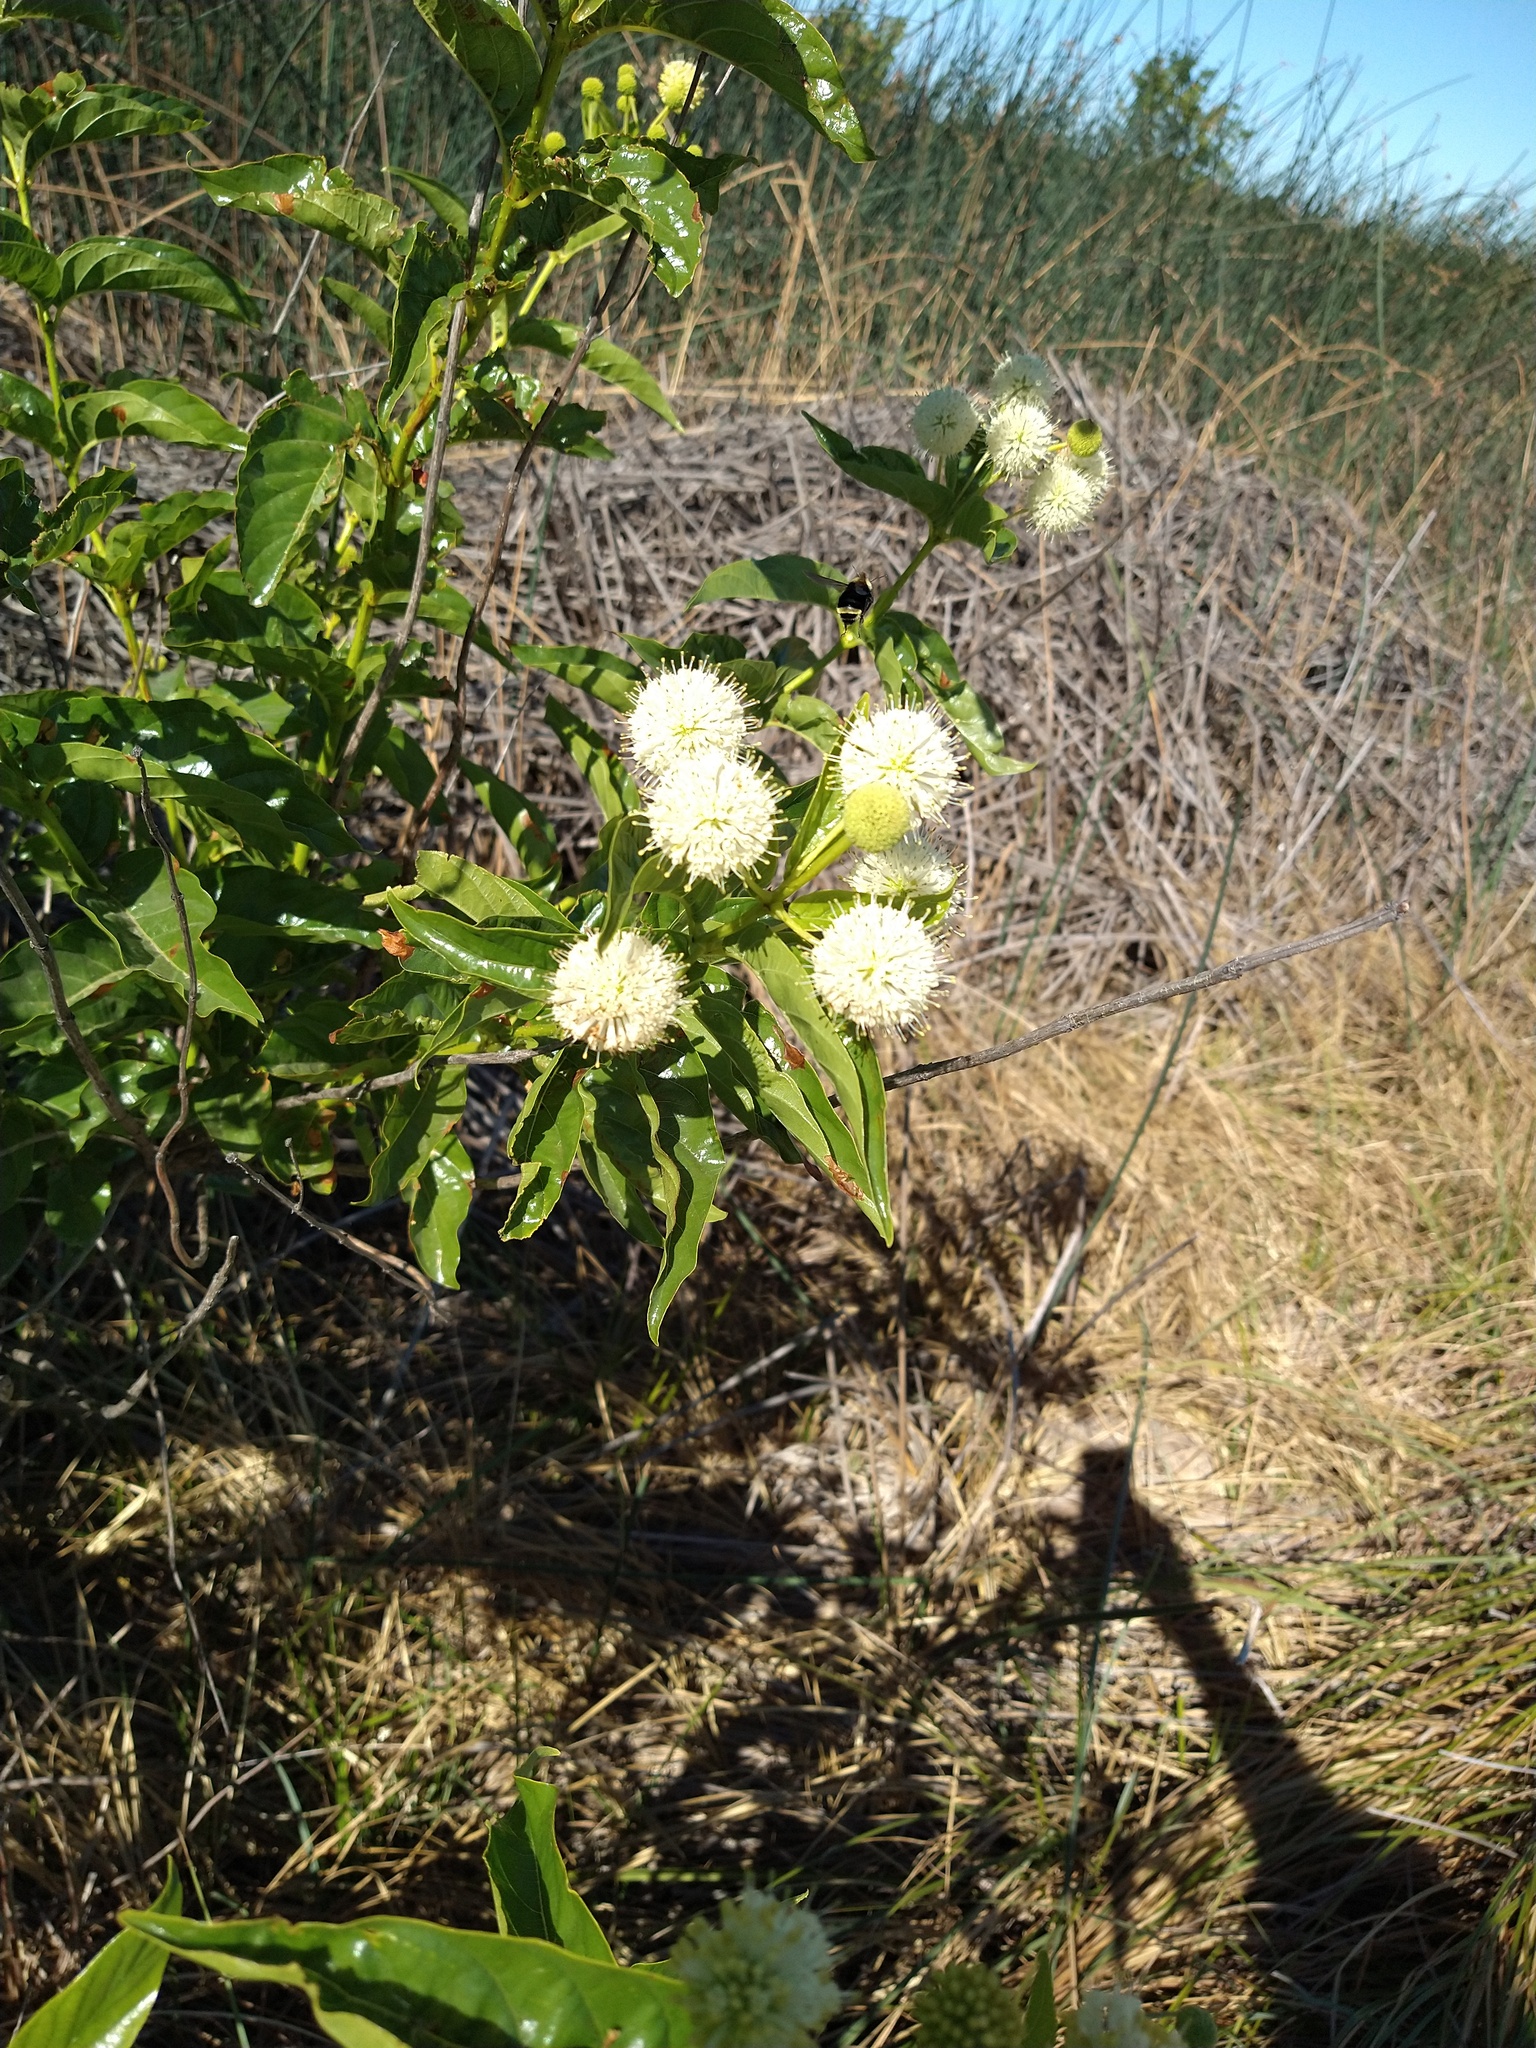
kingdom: Plantae
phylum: Tracheophyta
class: Magnoliopsida
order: Gentianales
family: Rubiaceae
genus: Cephalanthus
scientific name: Cephalanthus occidentalis
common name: Button-willow
